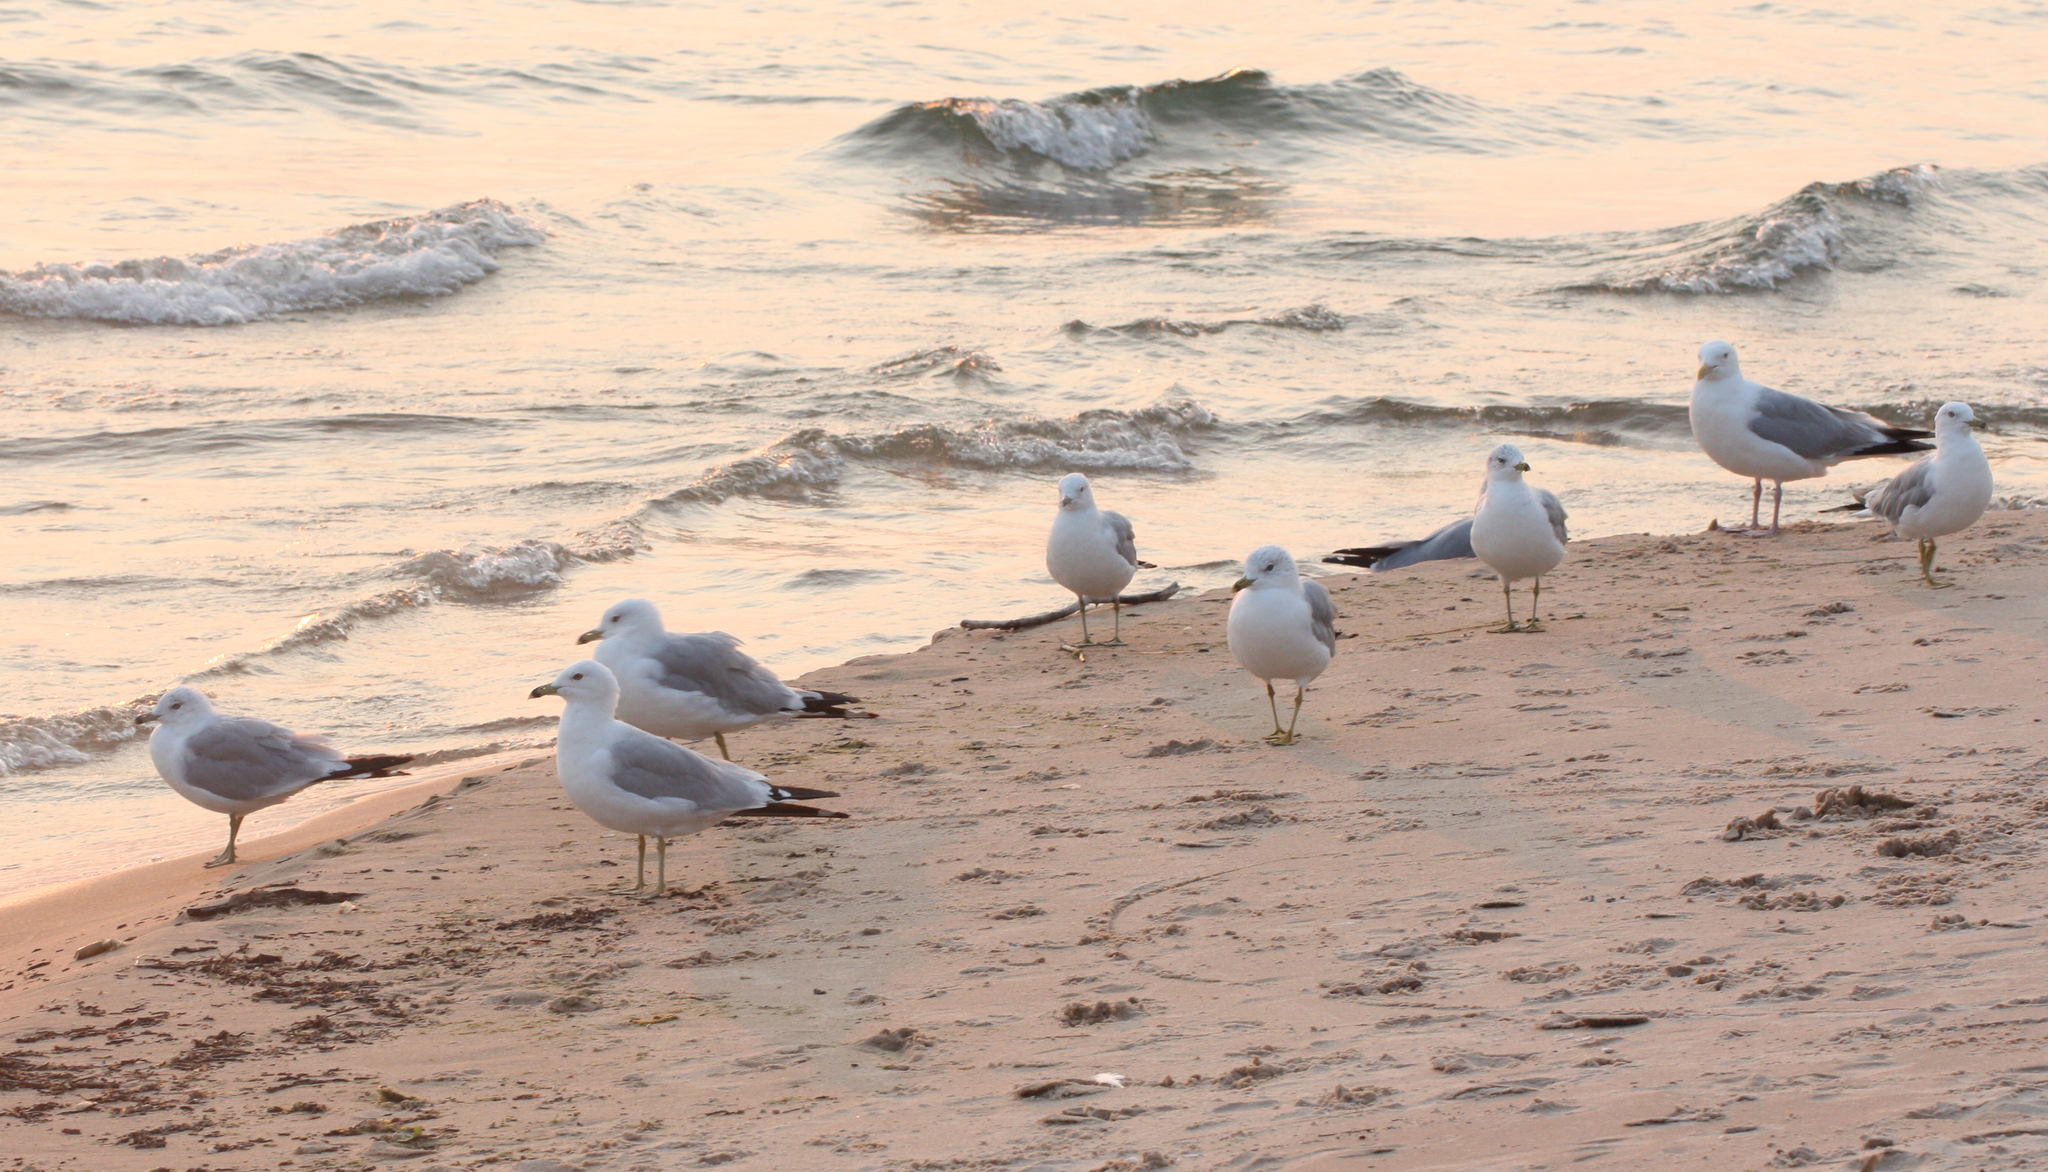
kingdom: Animalia
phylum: Chordata
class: Aves
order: Charadriiformes
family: Laridae
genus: Larus
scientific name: Larus delawarensis
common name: Ring-billed gull
